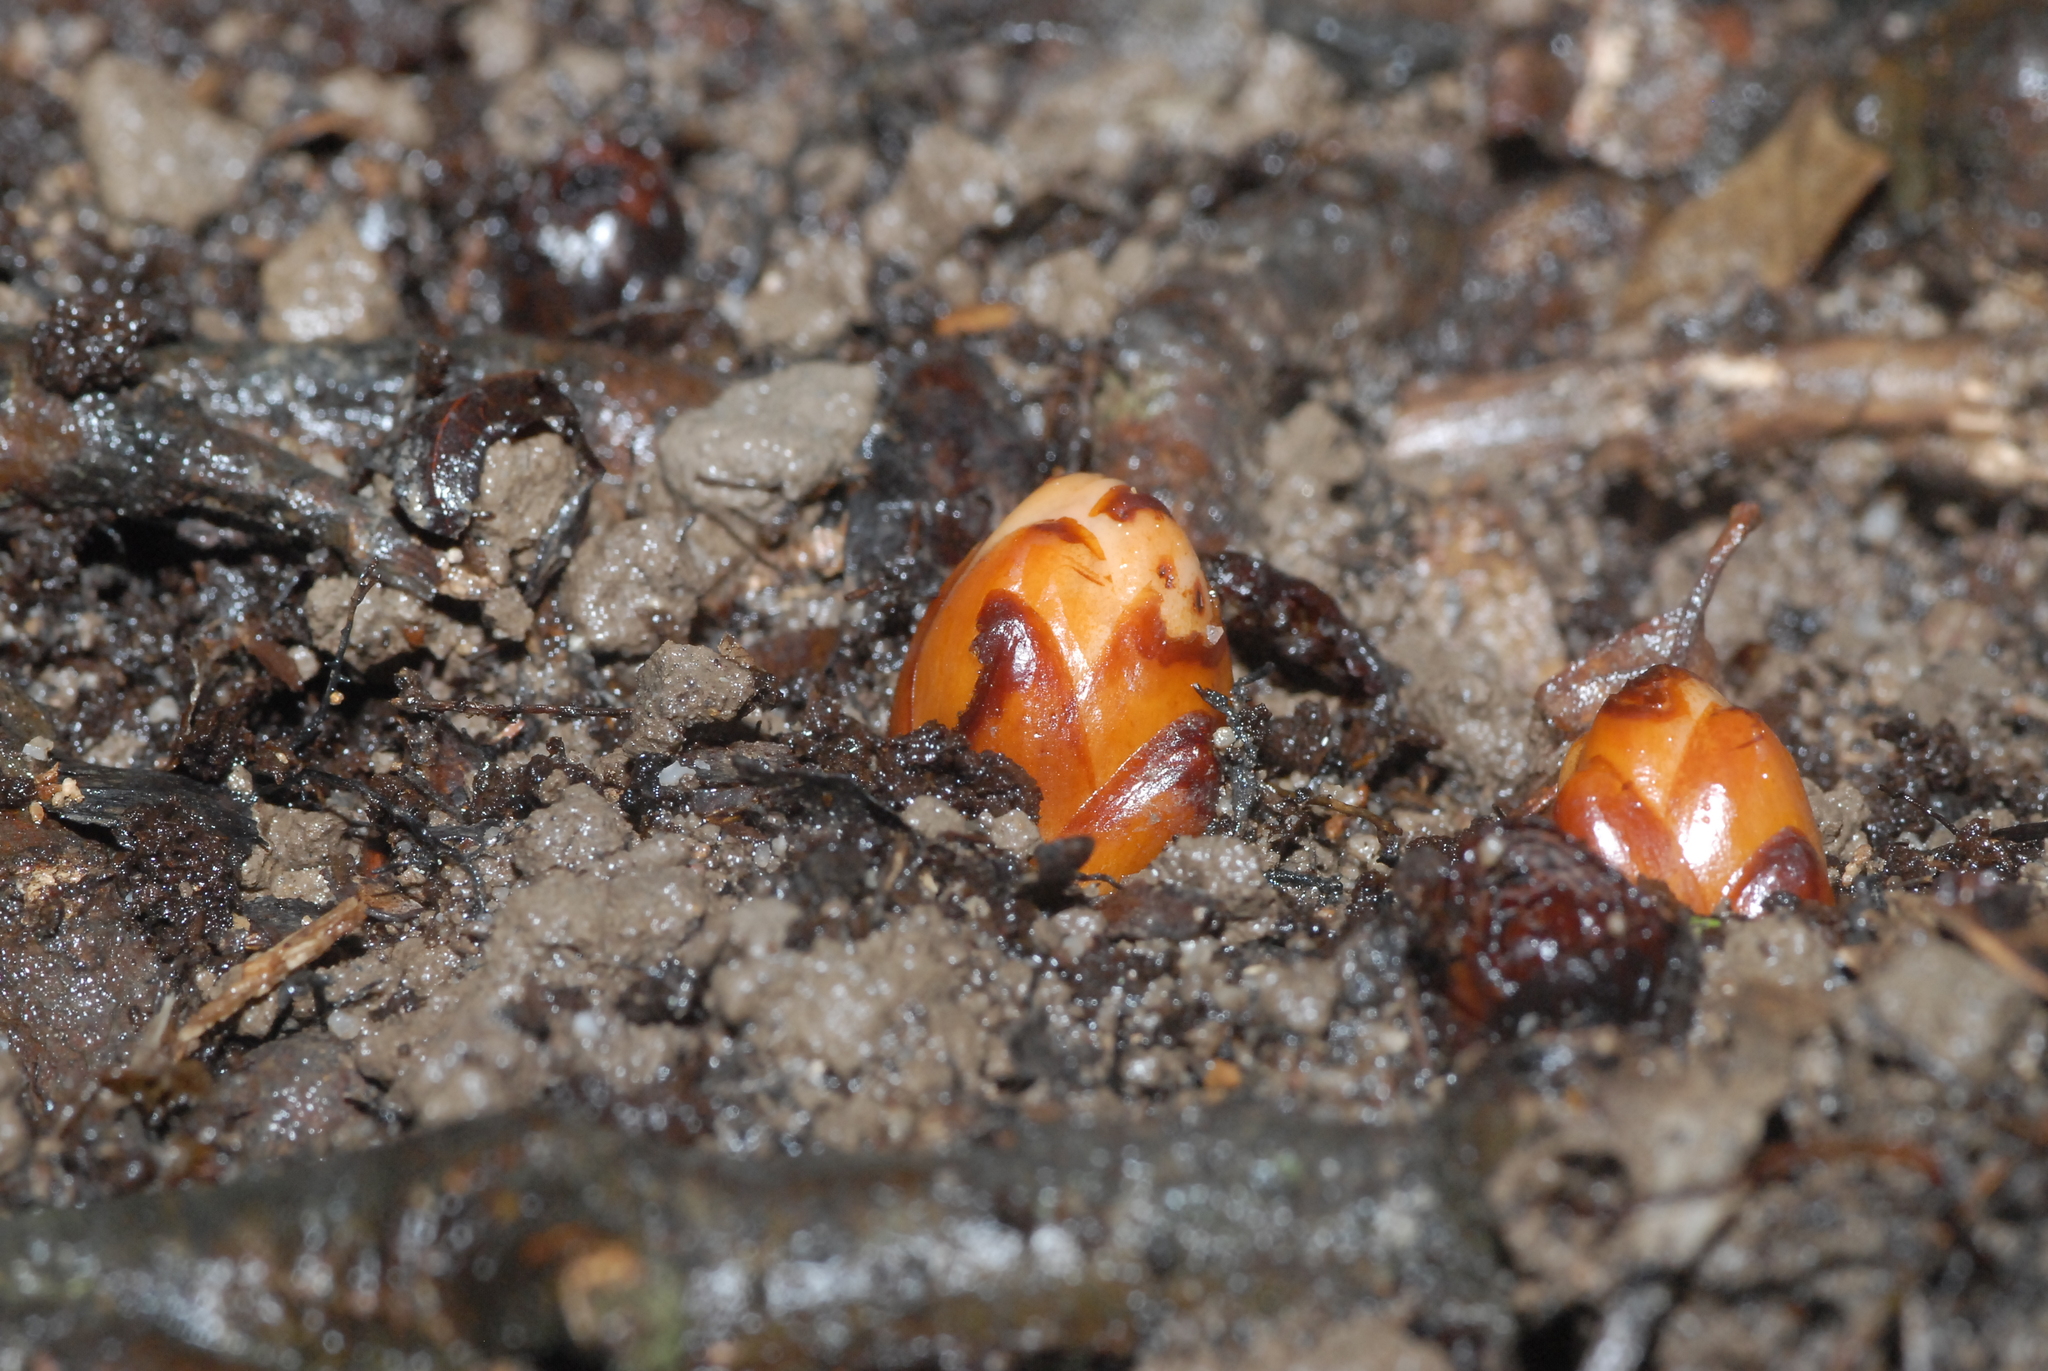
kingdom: Plantae
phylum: Tracheophyta
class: Magnoliopsida
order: Ericales
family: Mitrastemonaceae
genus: Mitrastemon
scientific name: Mitrastemon yamamotoi
